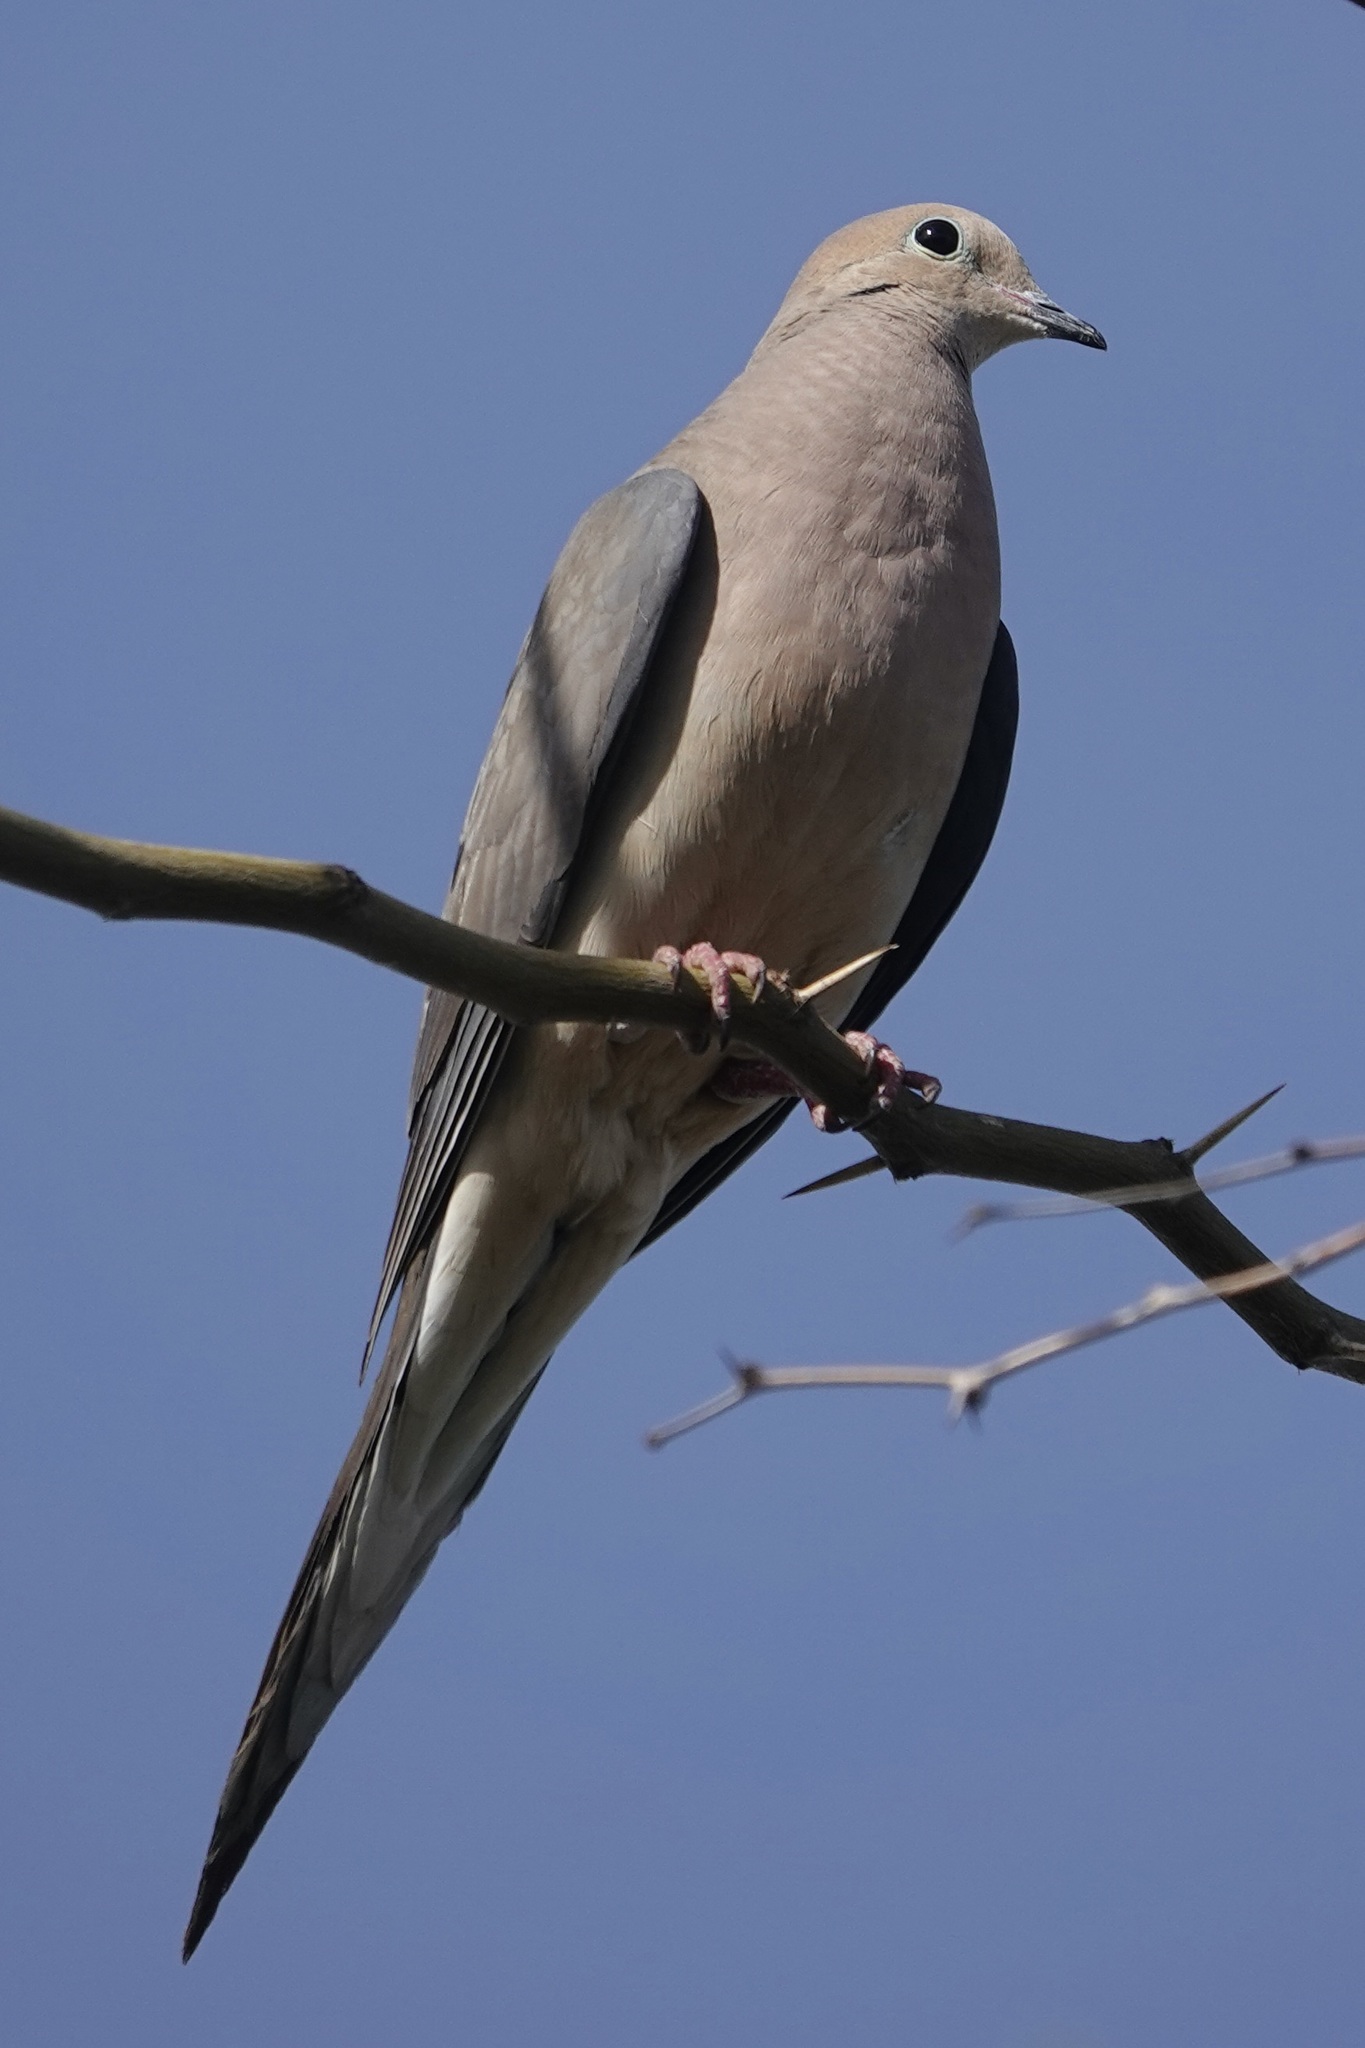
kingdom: Animalia
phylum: Chordata
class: Aves
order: Columbiformes
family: Columbidae
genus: Zenaida
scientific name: Zenaida macroura
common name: Mourning dove
